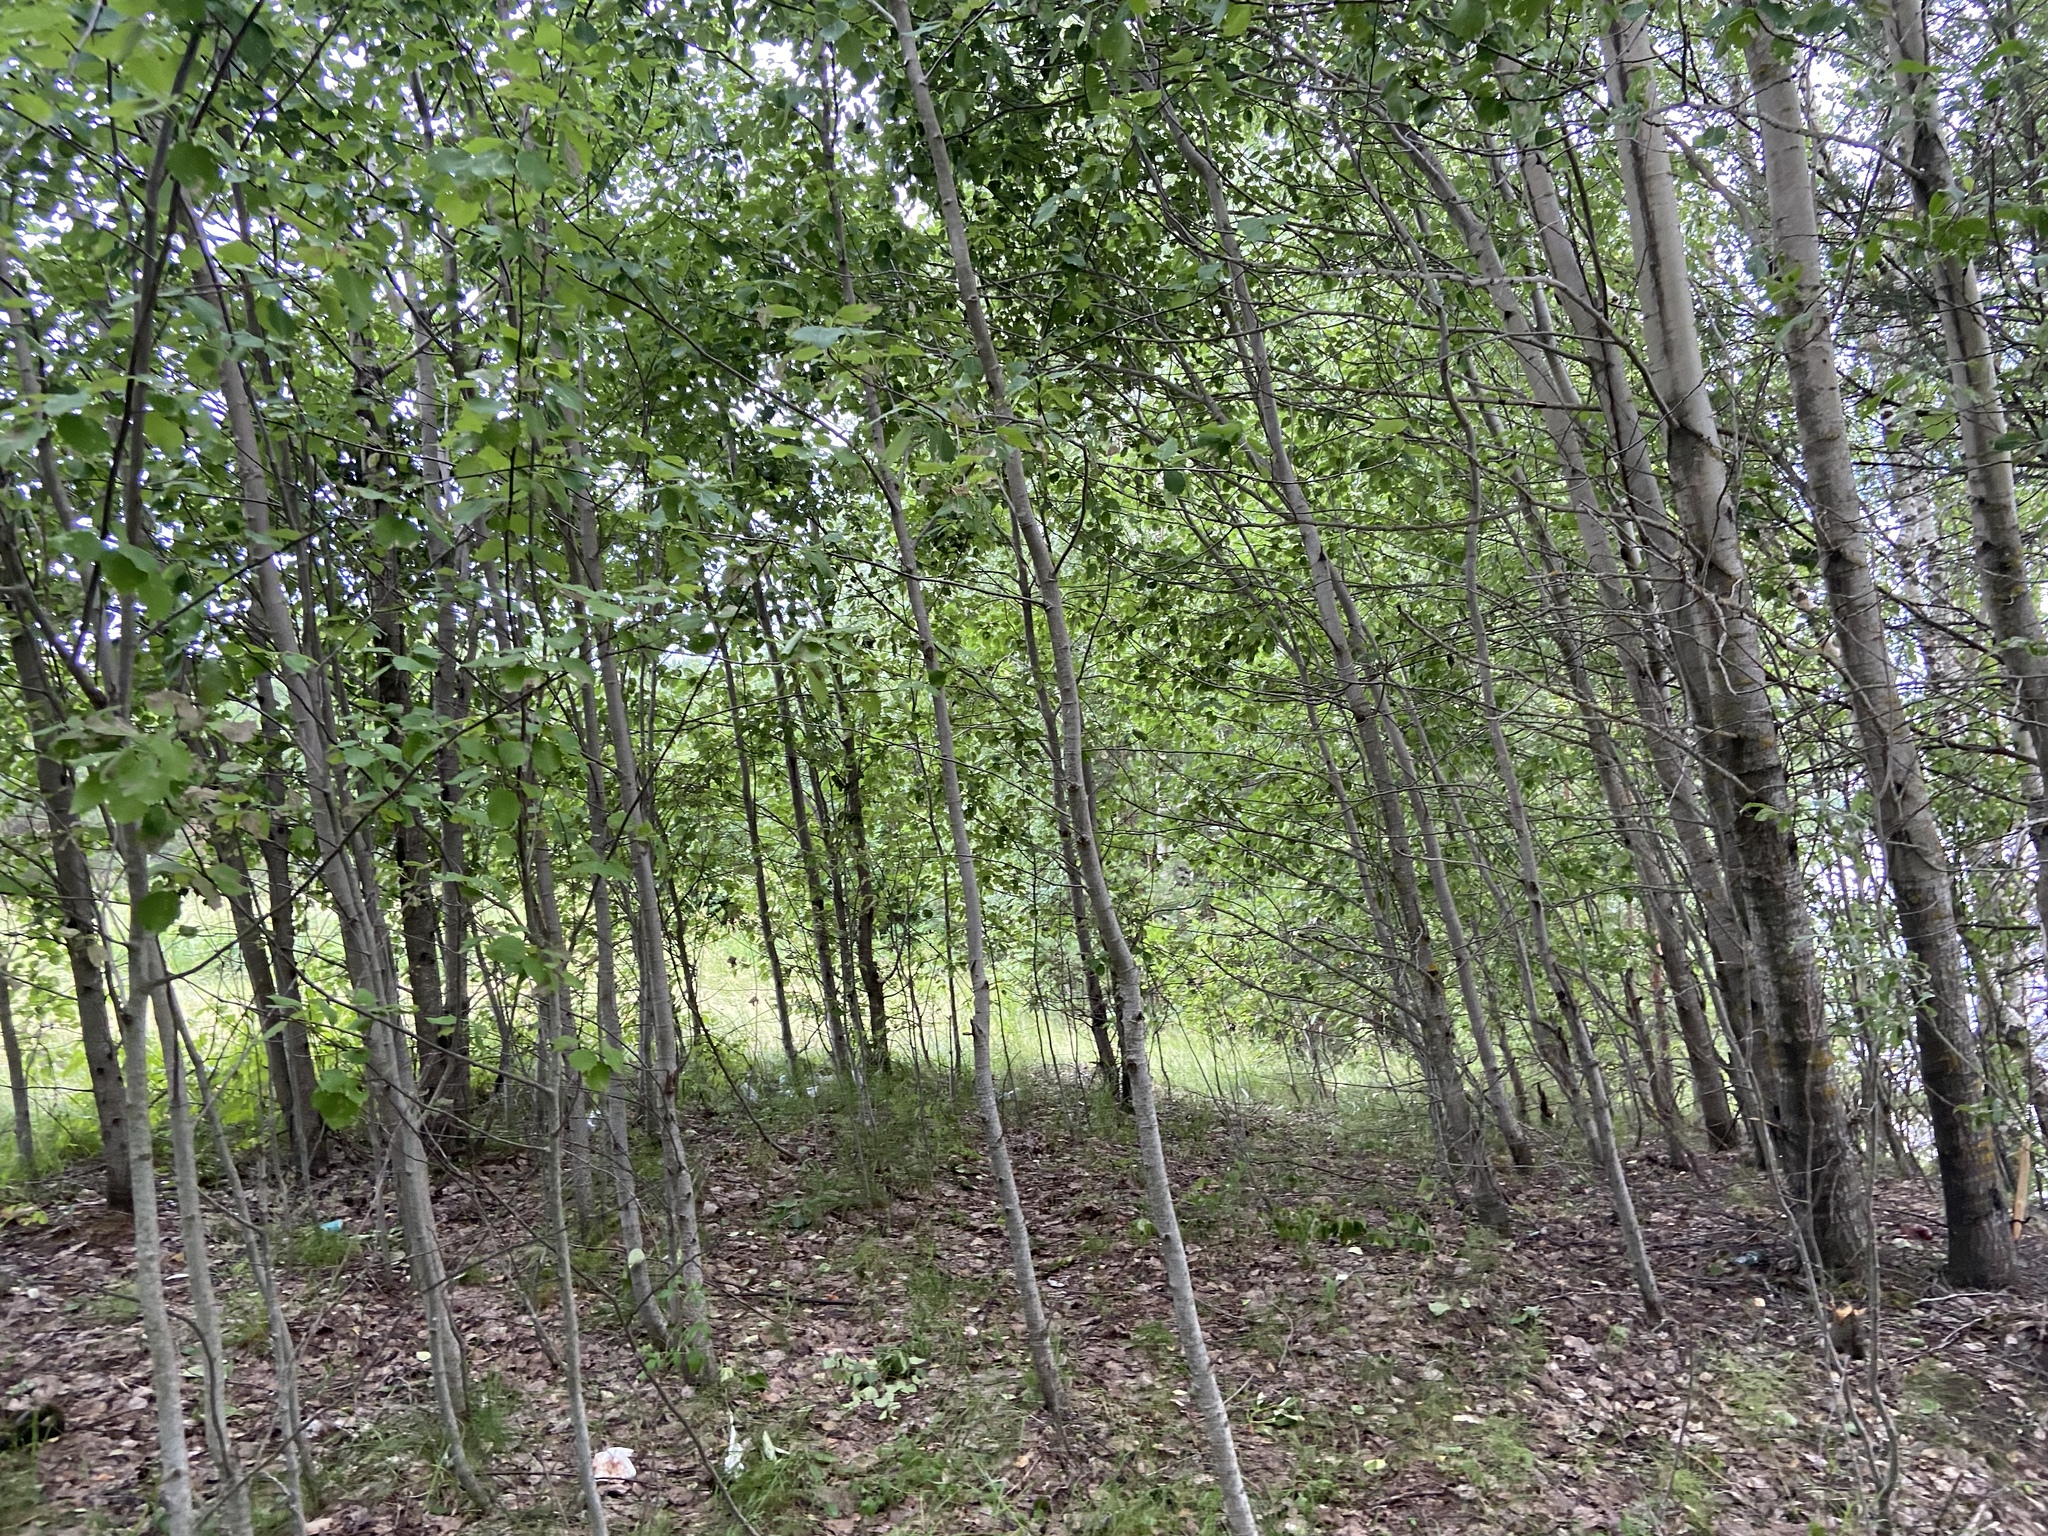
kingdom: Plantae
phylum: Tracheophyta
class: Magnoliopsida
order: Malpighiales
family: Salicaceae
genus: Populus
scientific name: Populus tremula
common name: European aspen
